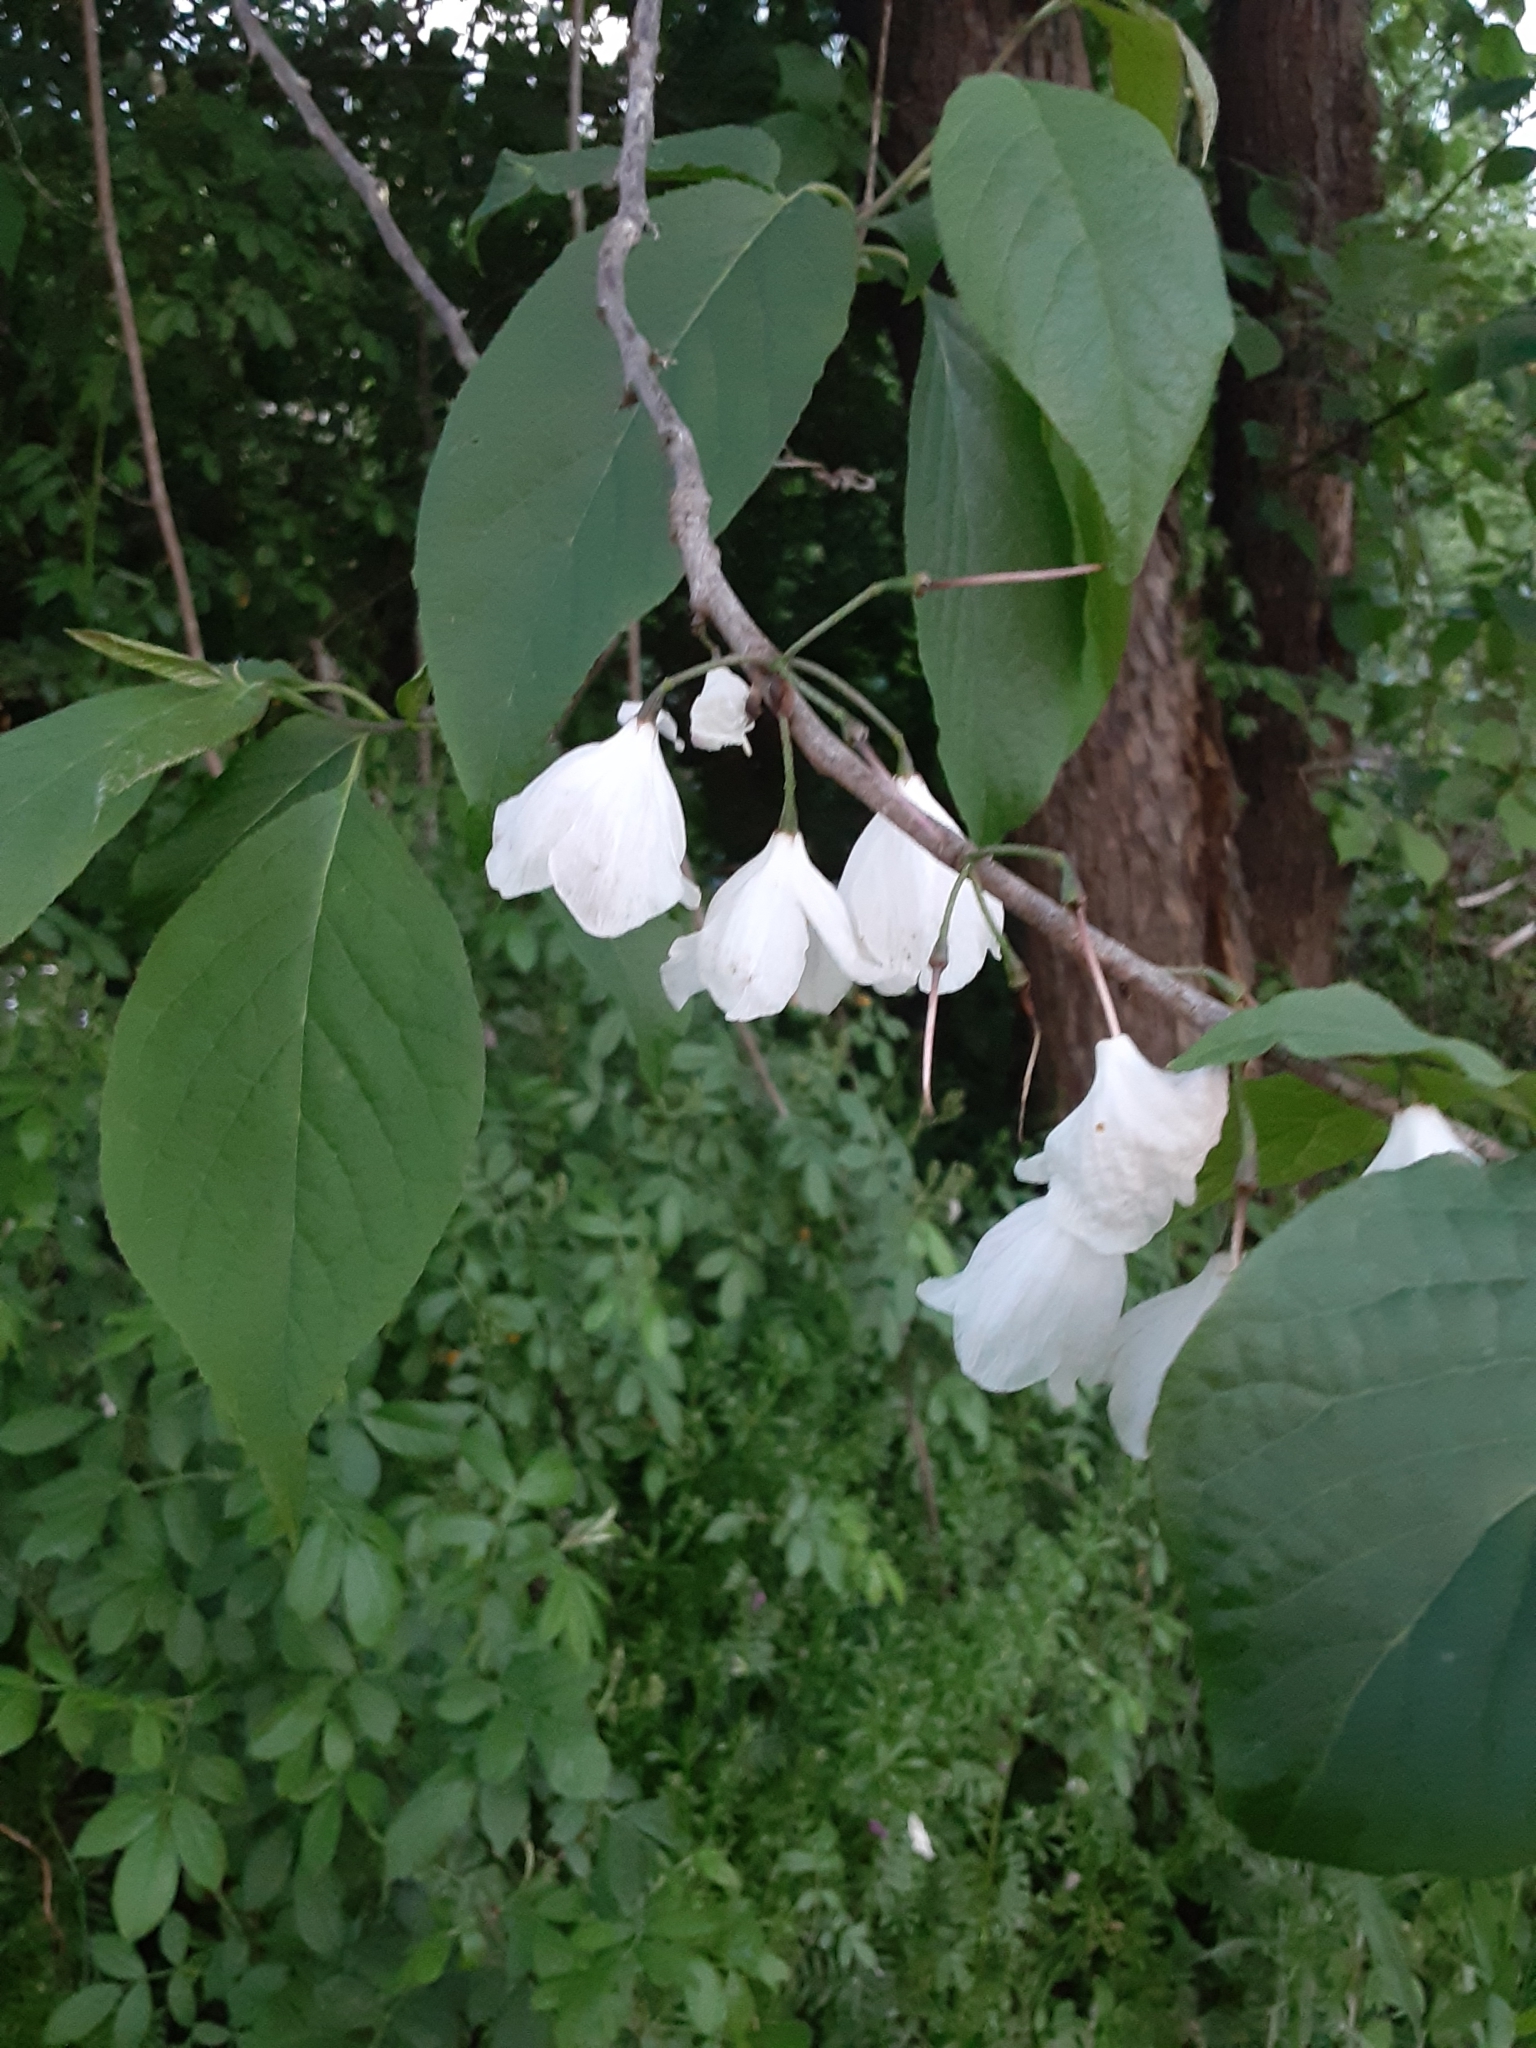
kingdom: Plantae
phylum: Tracheophyta
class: Magnoliopsida
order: Ericales
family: Styracaceae
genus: Halesia
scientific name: Halesia carolina
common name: Carolina silverbell
